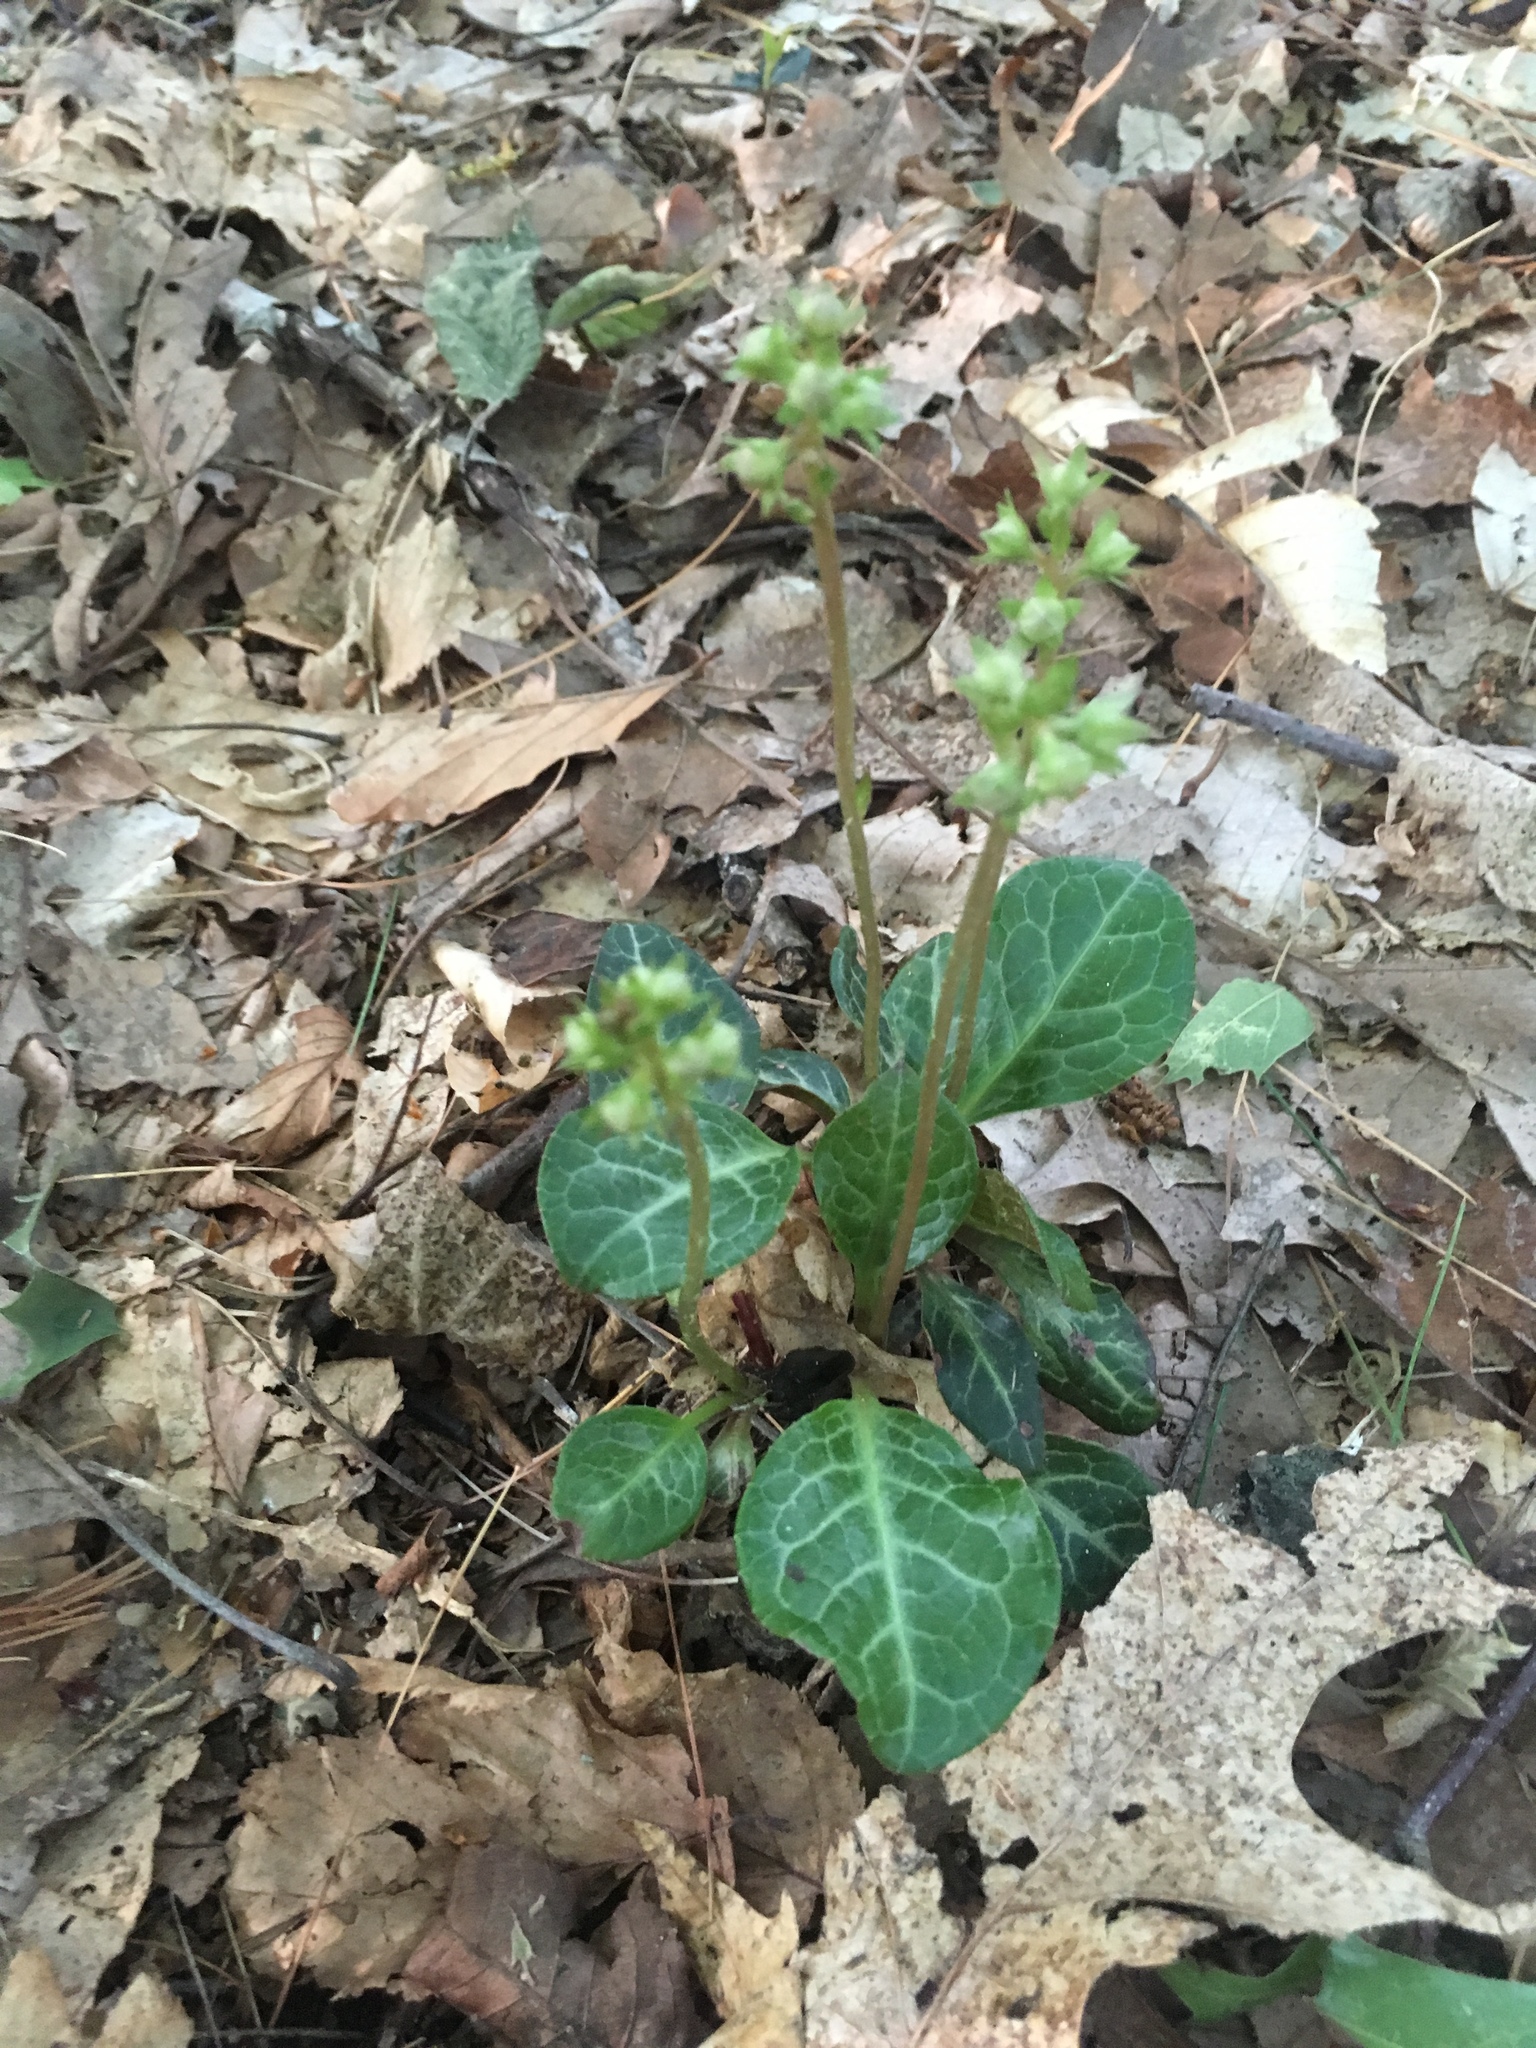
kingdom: Plantae
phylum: Tracheophyta
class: Magnoliopsida
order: Ericales
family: Ericaceae
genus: Pyrola
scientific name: Pyrola americana
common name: American wintergreen
